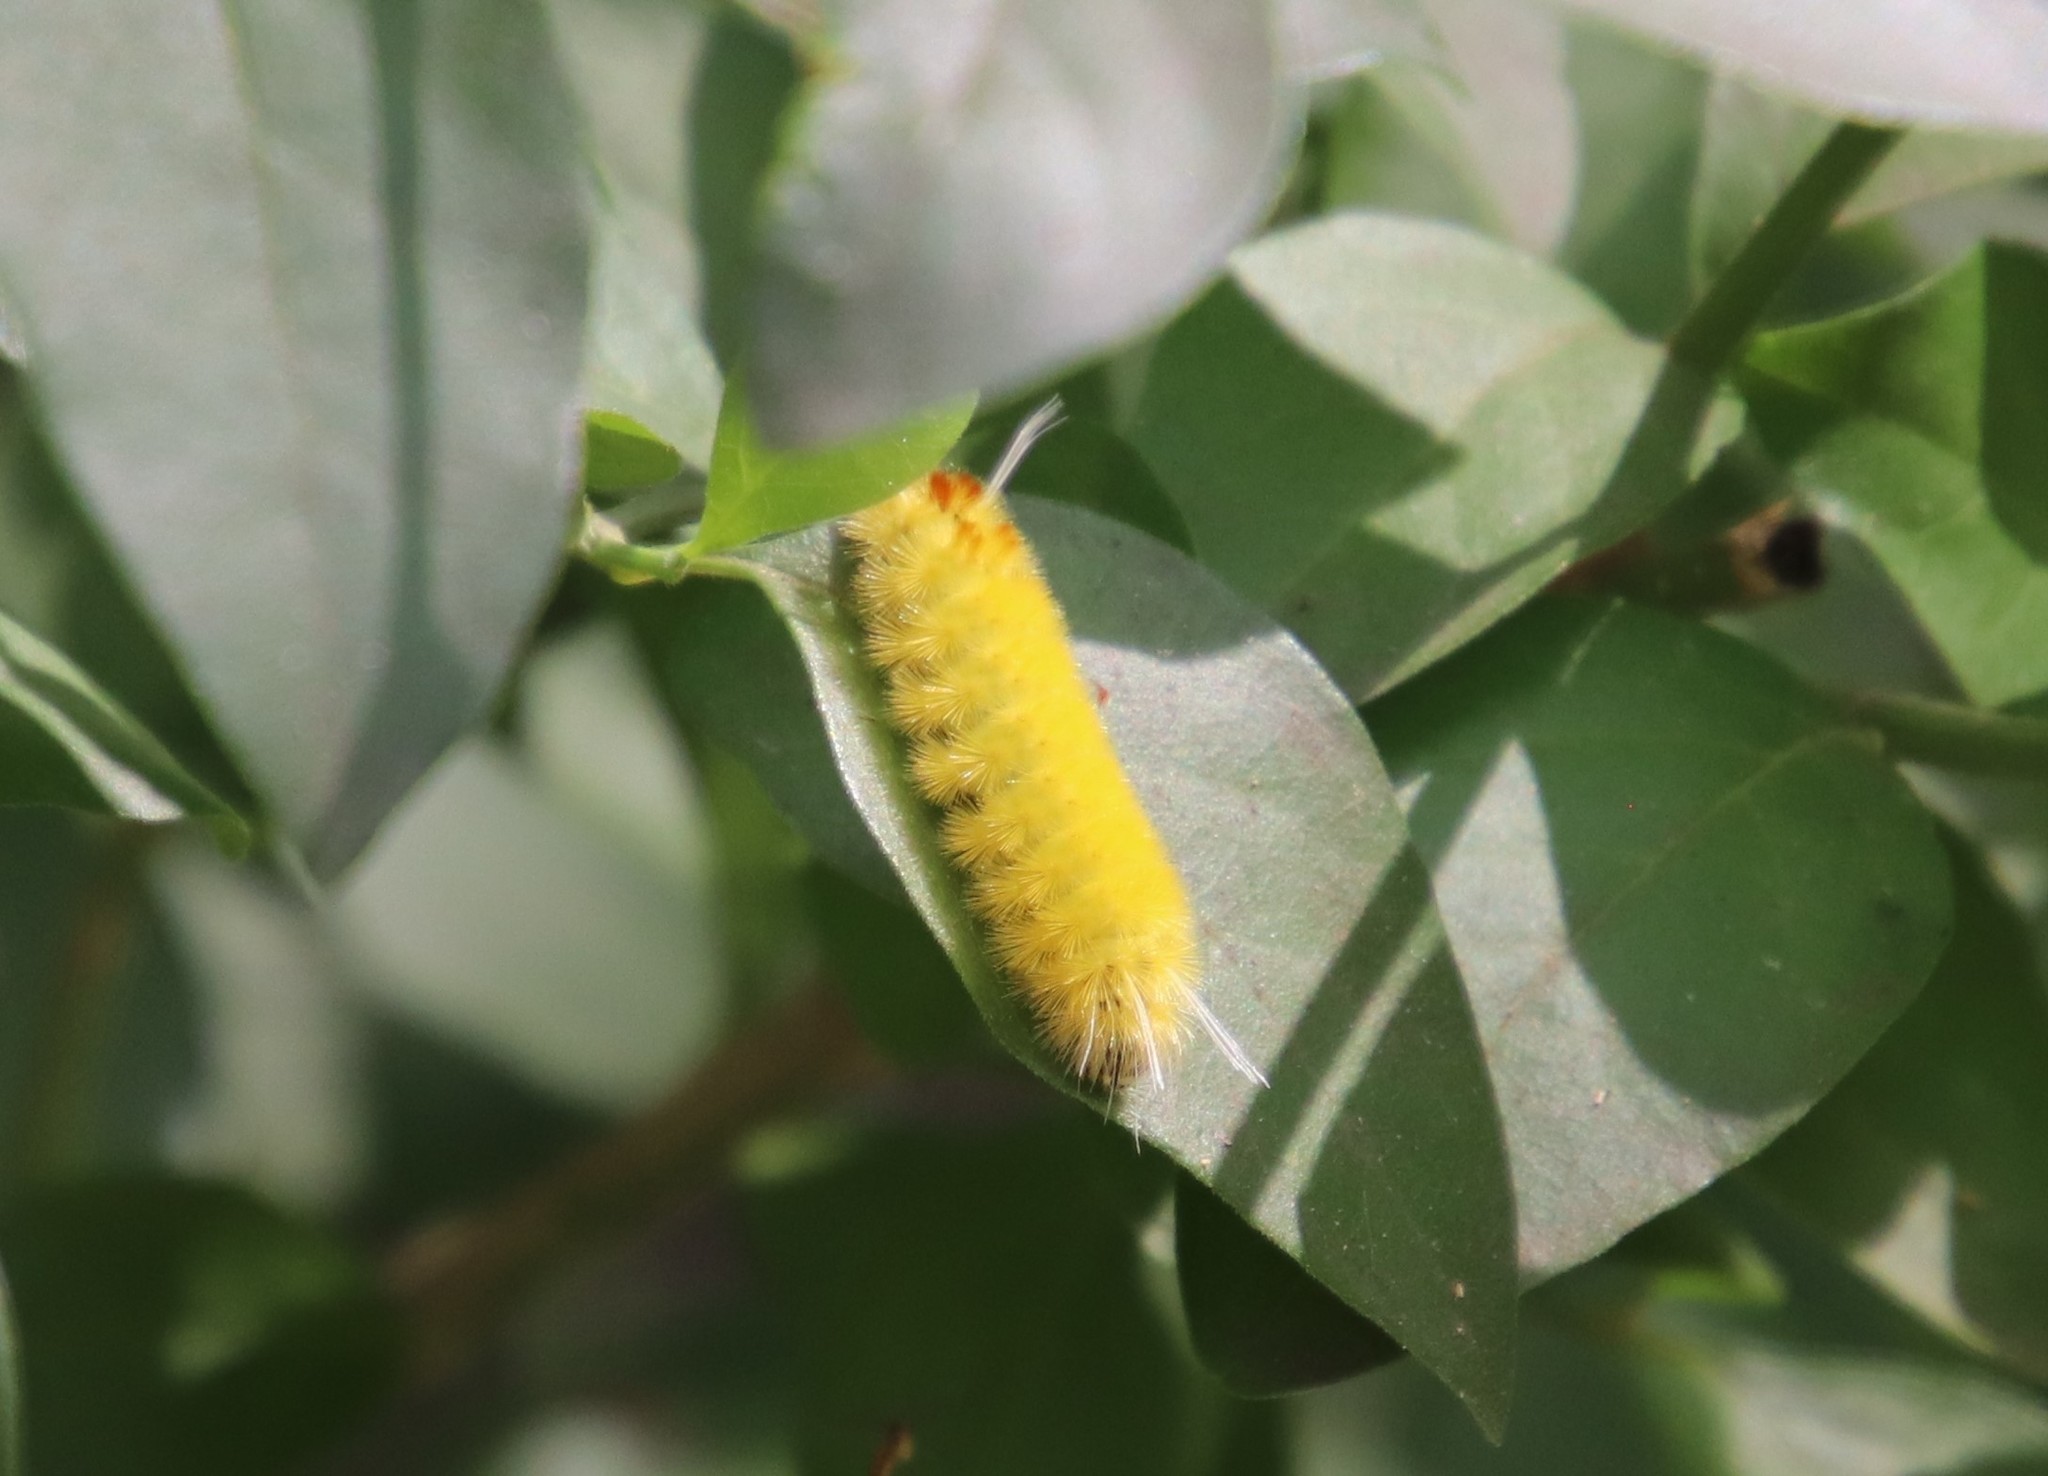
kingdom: Animalia
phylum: Arthropoda
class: Insecta
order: Lepidoptera
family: Erebidae
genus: Lophocampa
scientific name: Lophocampa annulosa
